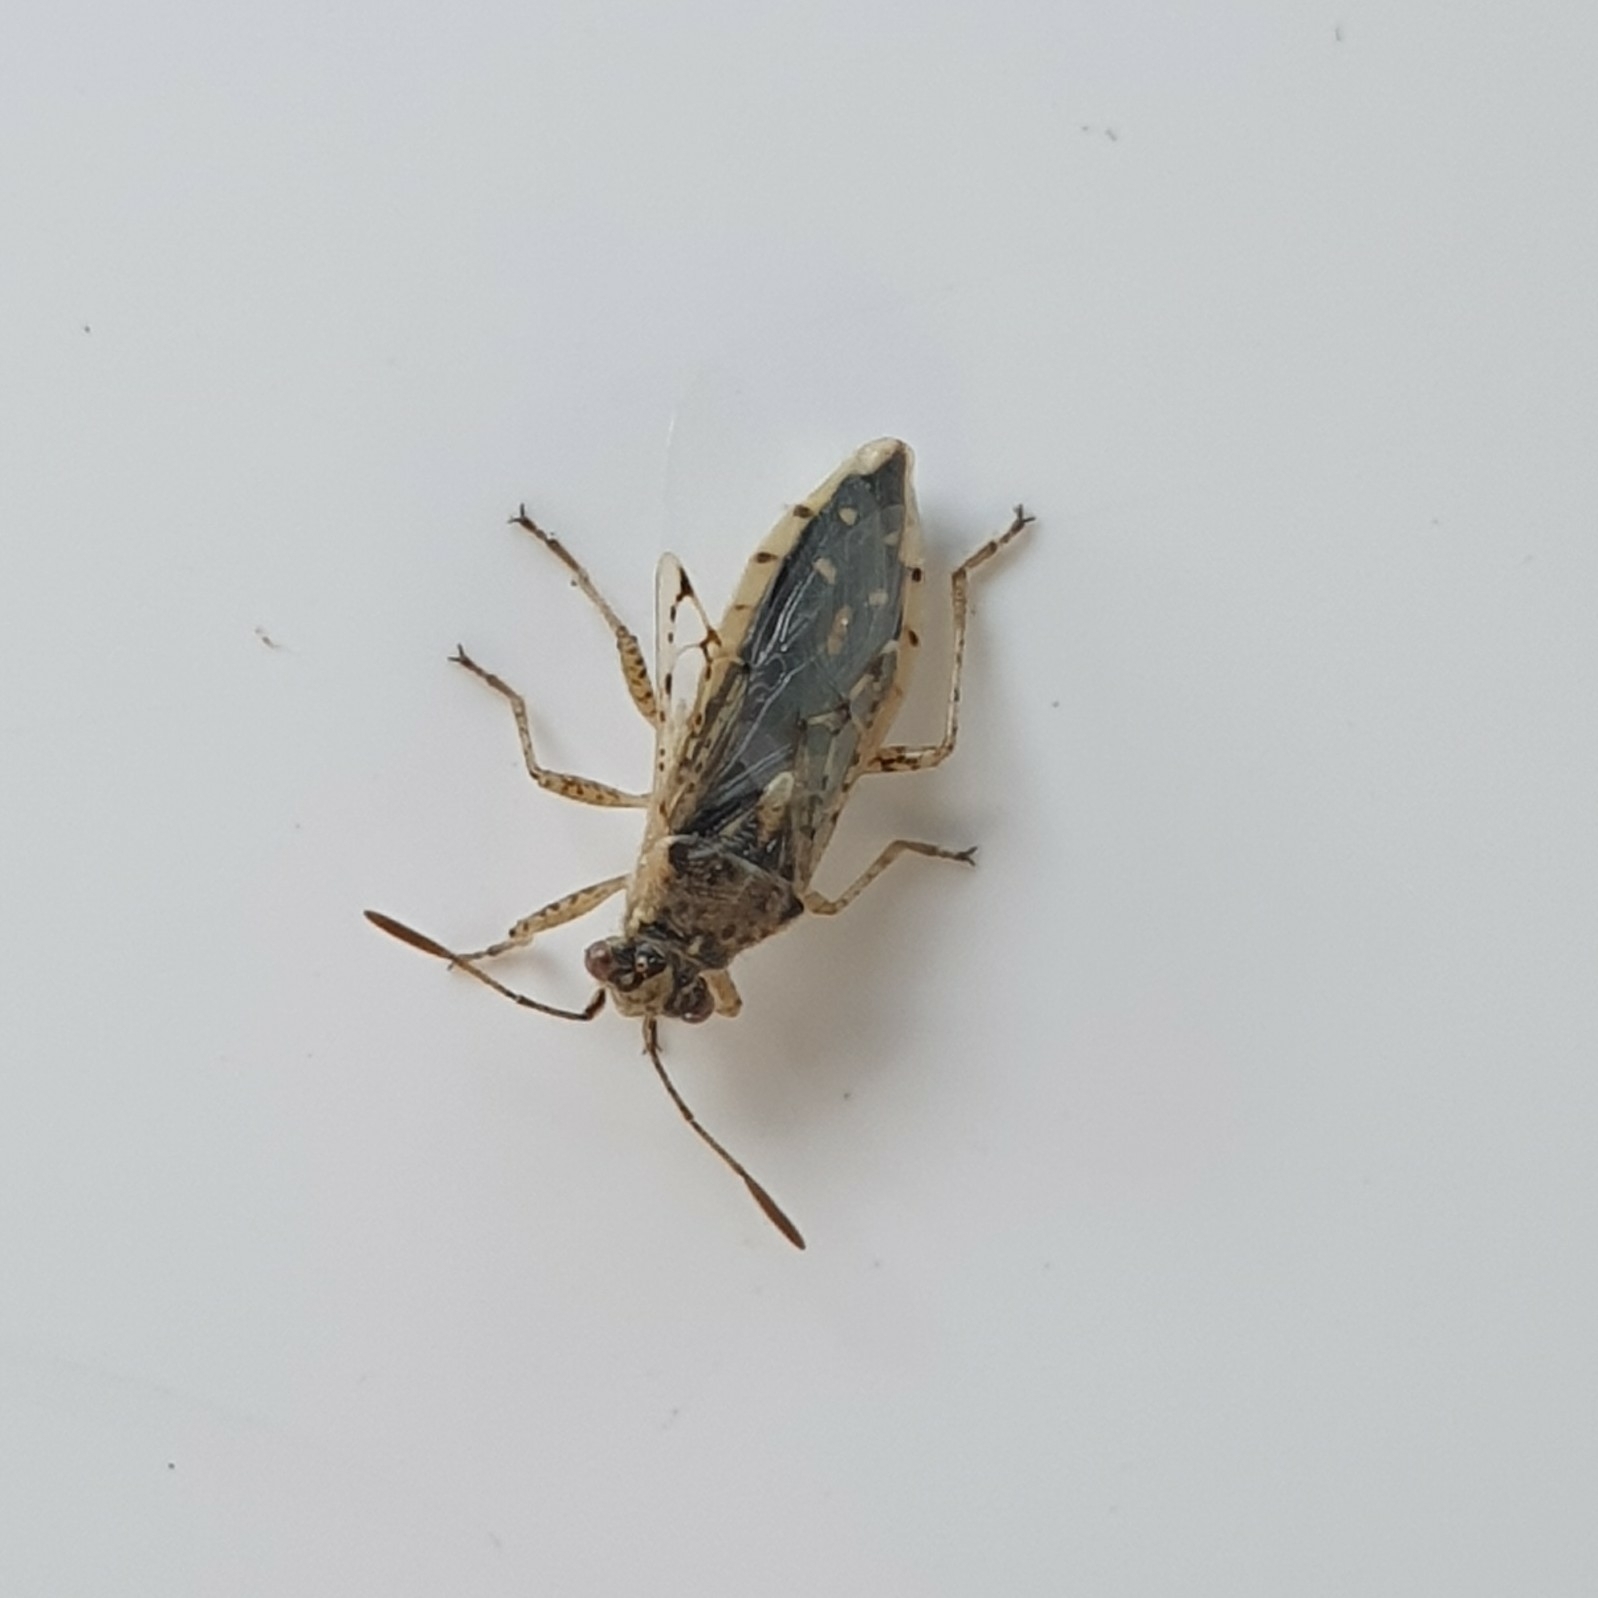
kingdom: Animalia
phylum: Arthropoda
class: Insecta
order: Hemiptera
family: Rhopalidae
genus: Brachycarenus
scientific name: Brachycarenus tigrinus
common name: Scentless plant bug
